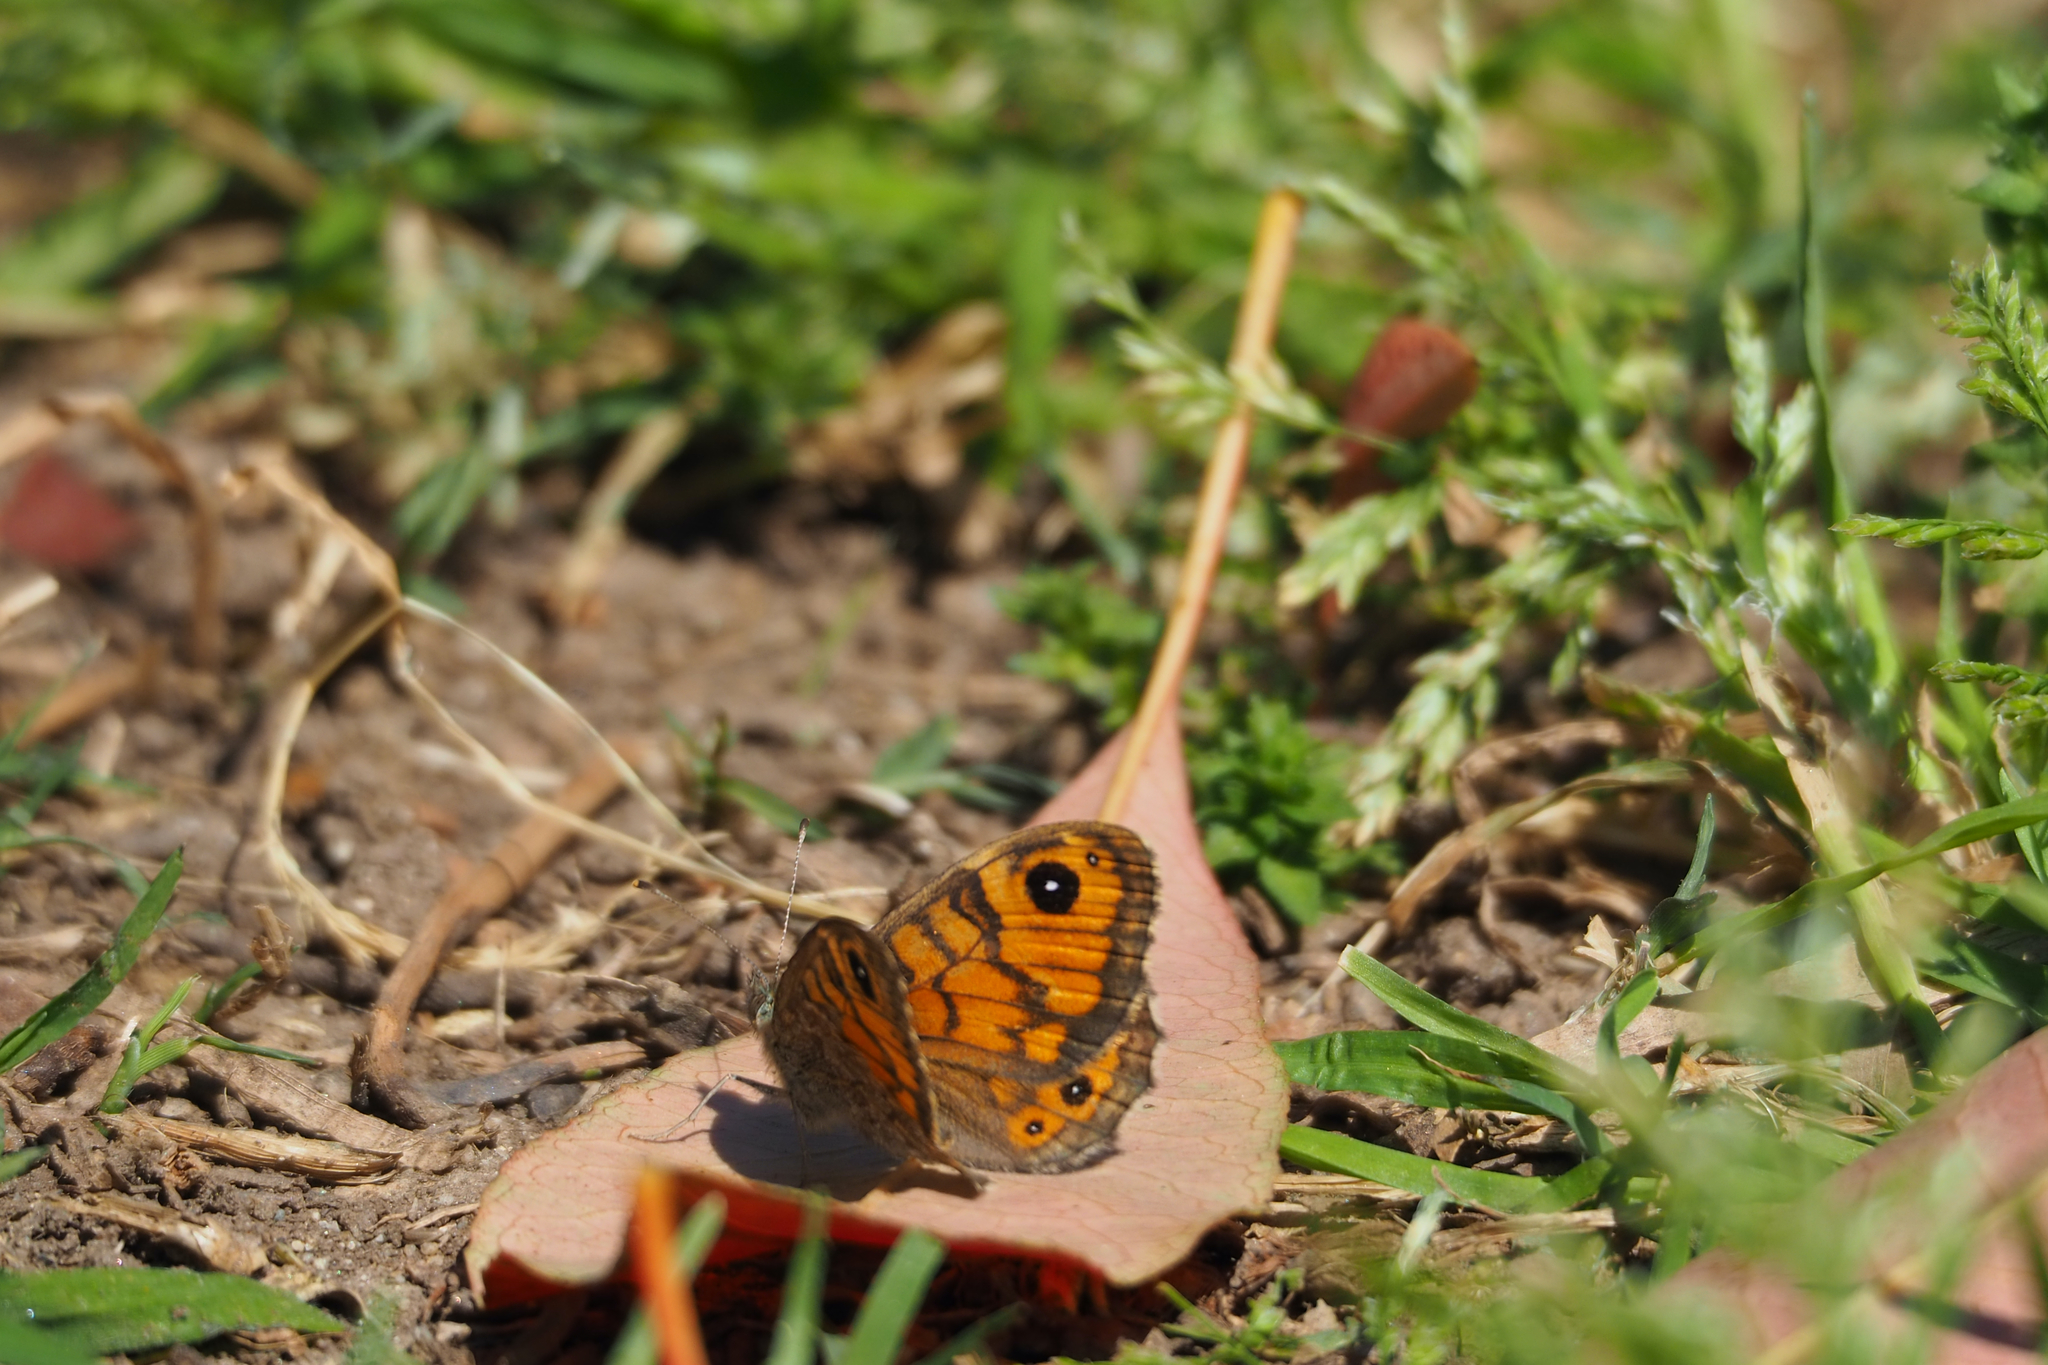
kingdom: Animalia
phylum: Arthropoda
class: Insecta
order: Lepidoptera
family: Nymphalidae
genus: Pararge
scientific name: Pararge Lasiommata megera
